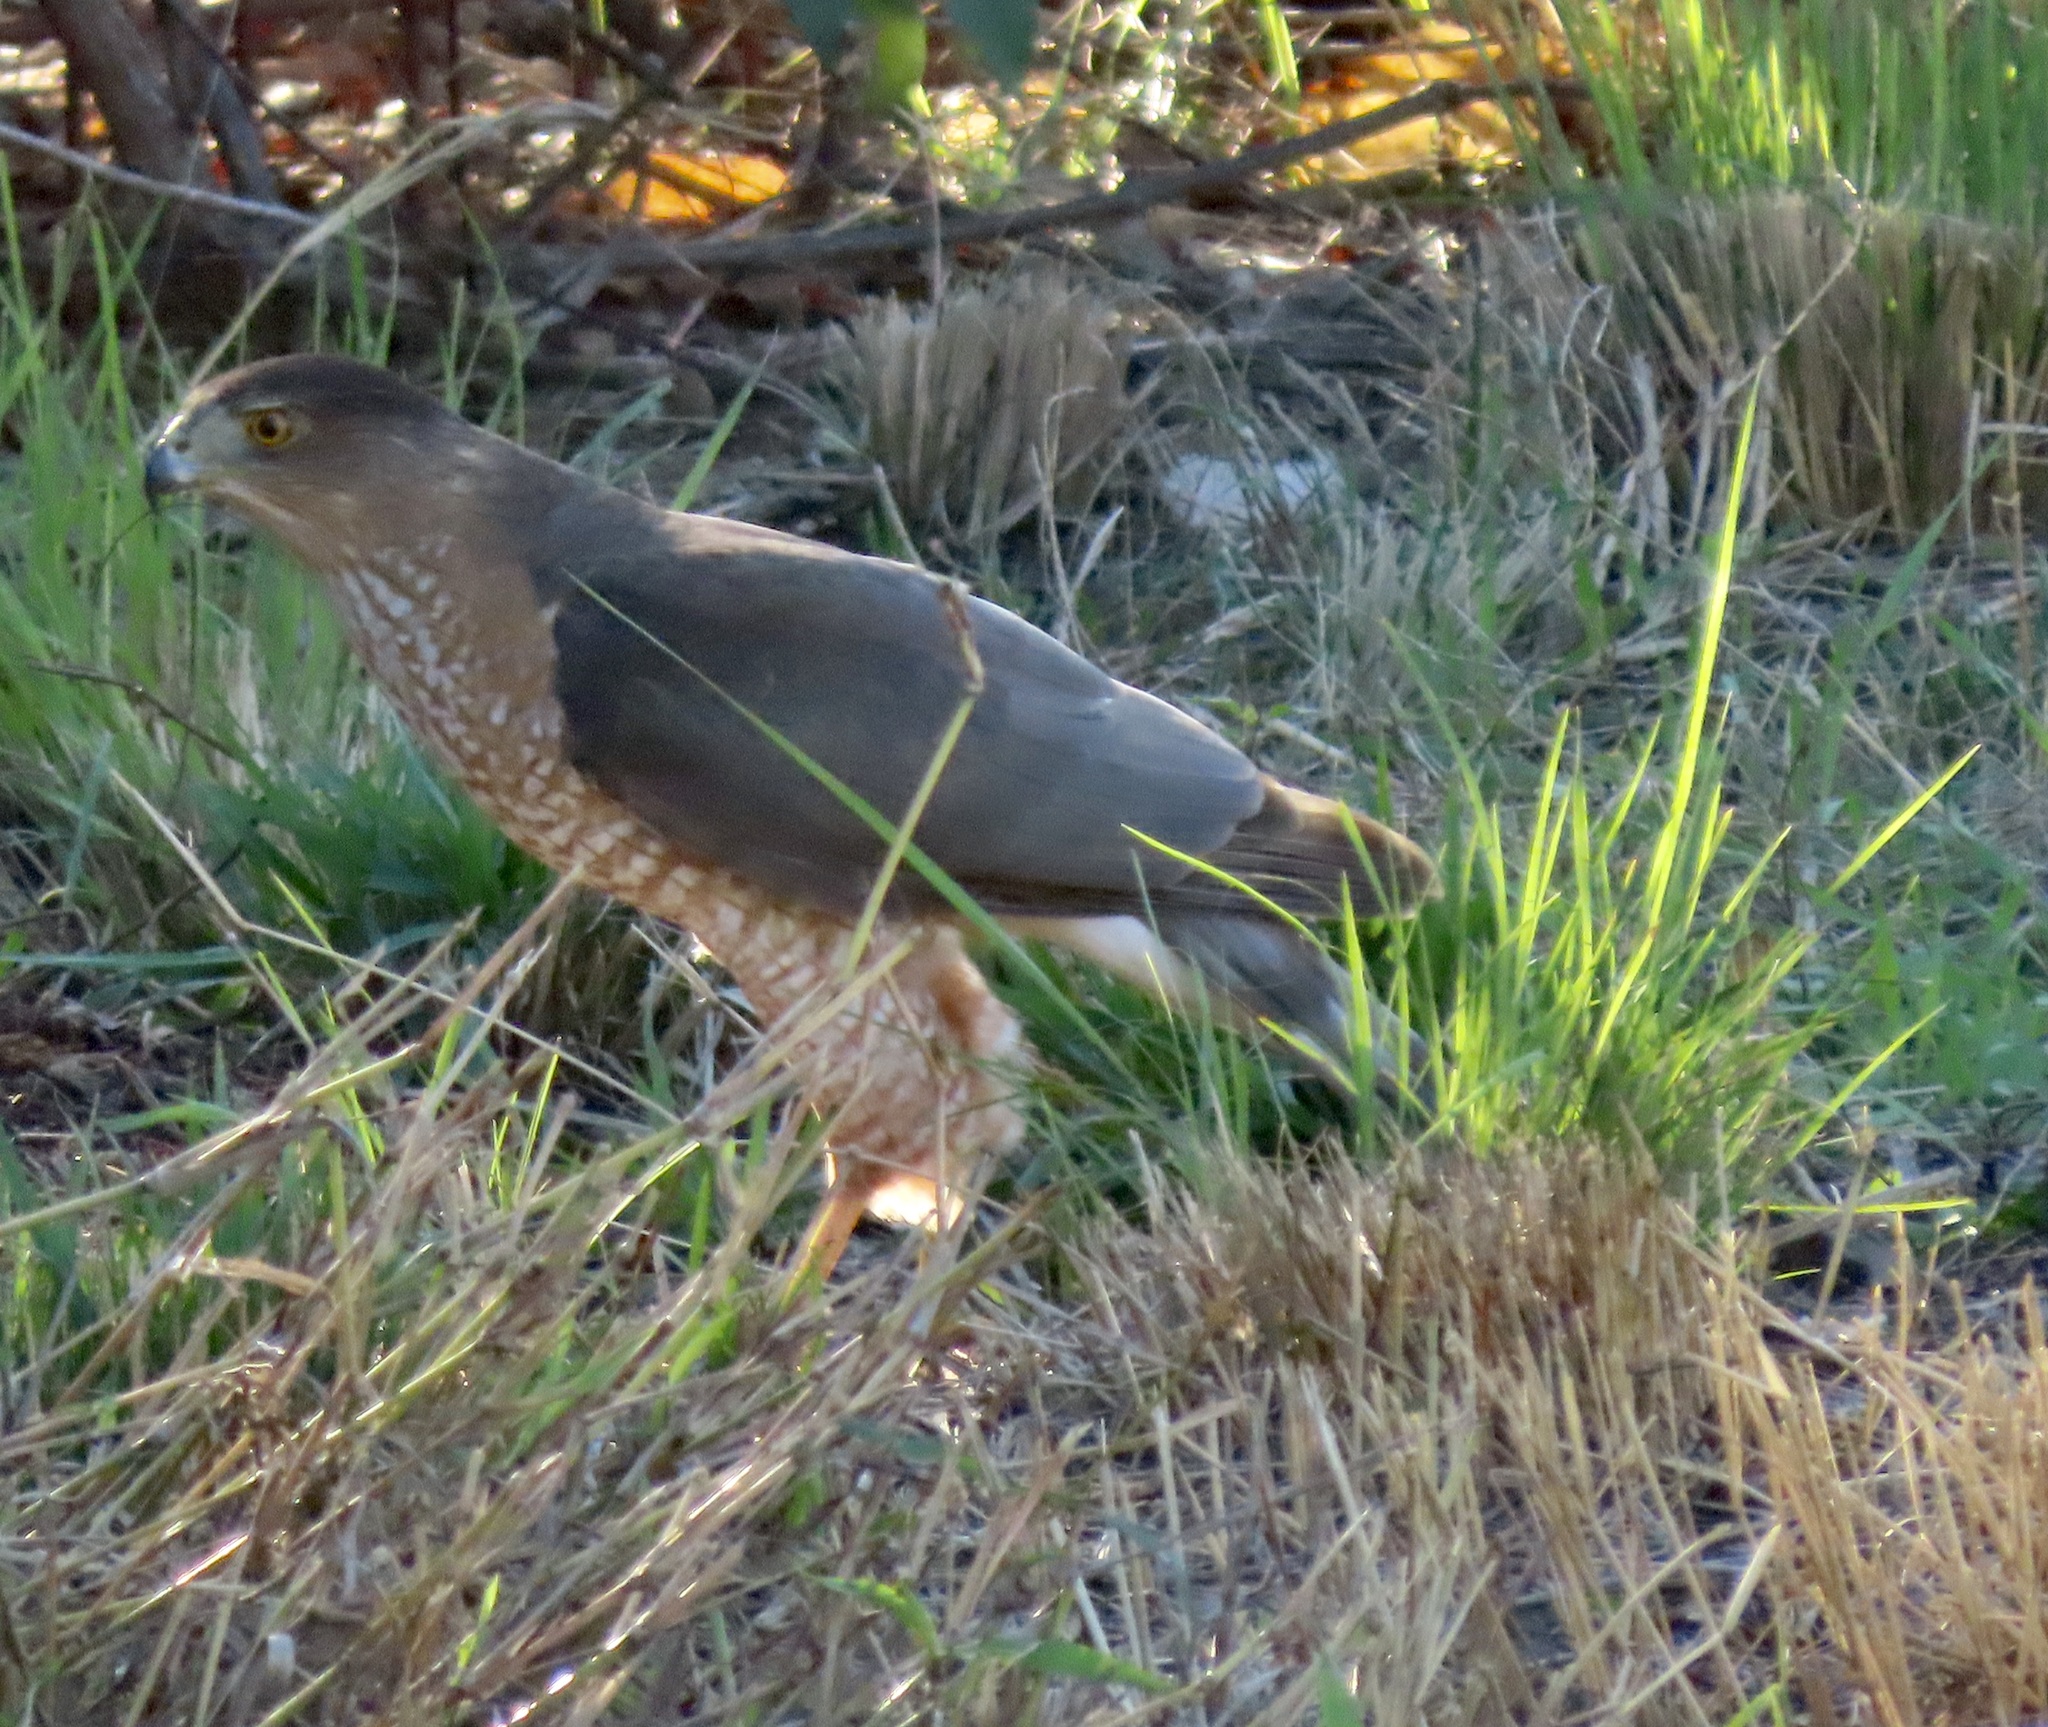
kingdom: Animalia
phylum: Chordata
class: Aves
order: Accipitriformes
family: Accipitridae
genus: Accipiter
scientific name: Accipiter cooperii
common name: Cooper's hawk
